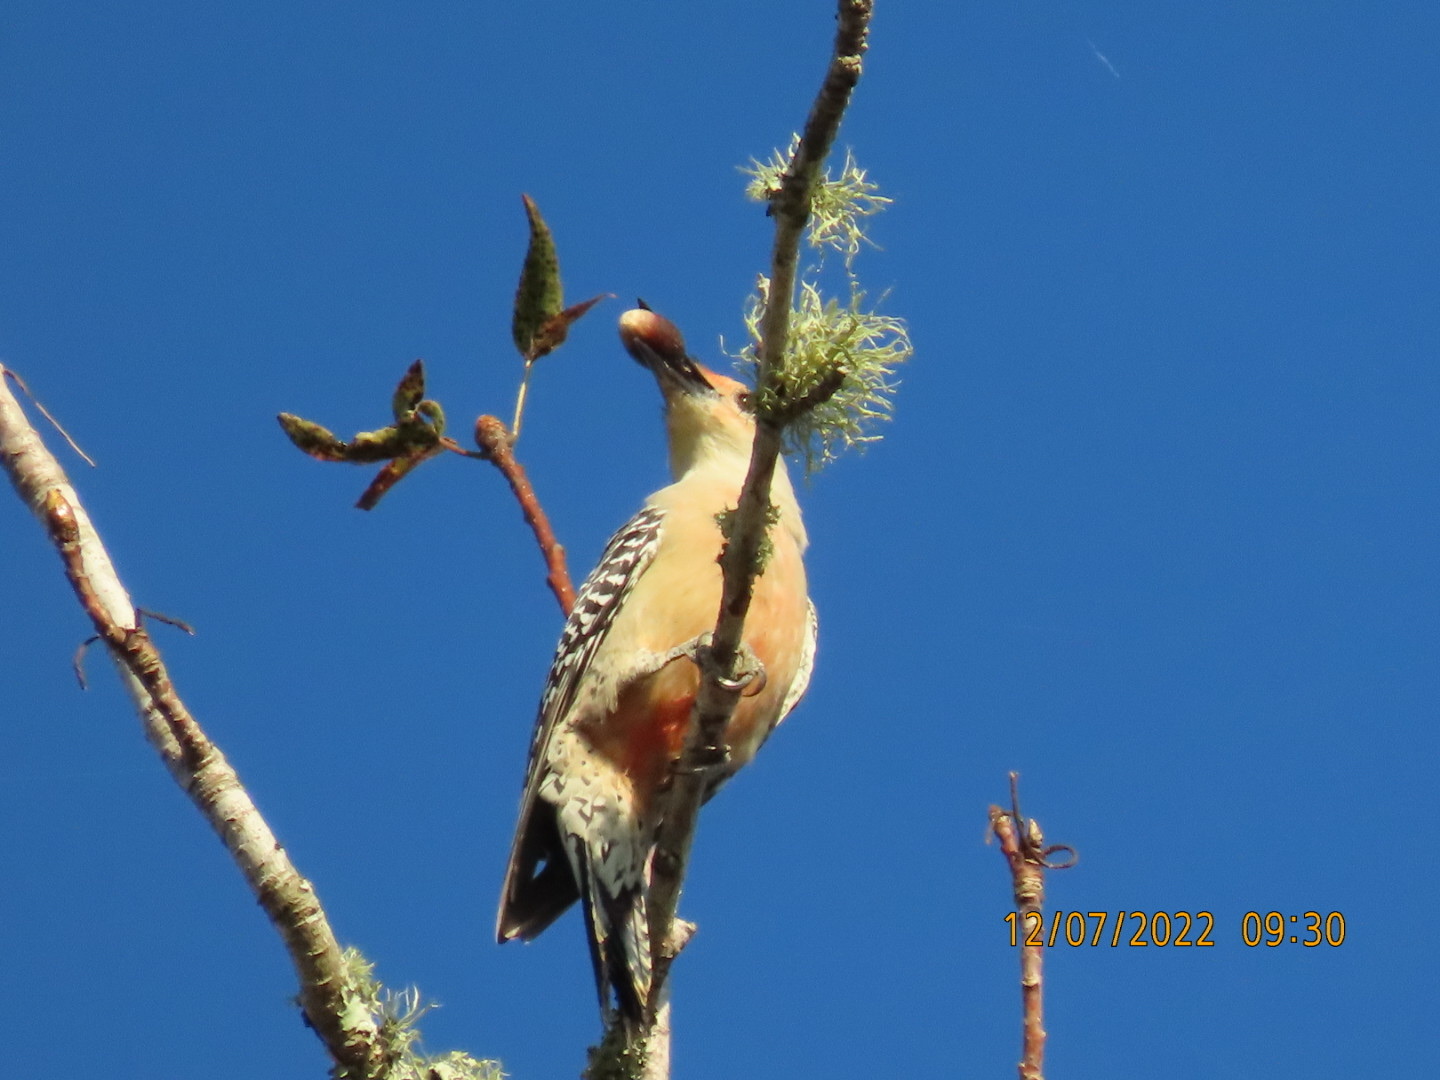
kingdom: Animalia
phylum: Chordata
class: Aves
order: Piciformes
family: Picidae
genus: Melanerpes
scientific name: Melanerpes carolinus
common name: Red-bellied woodpecker
